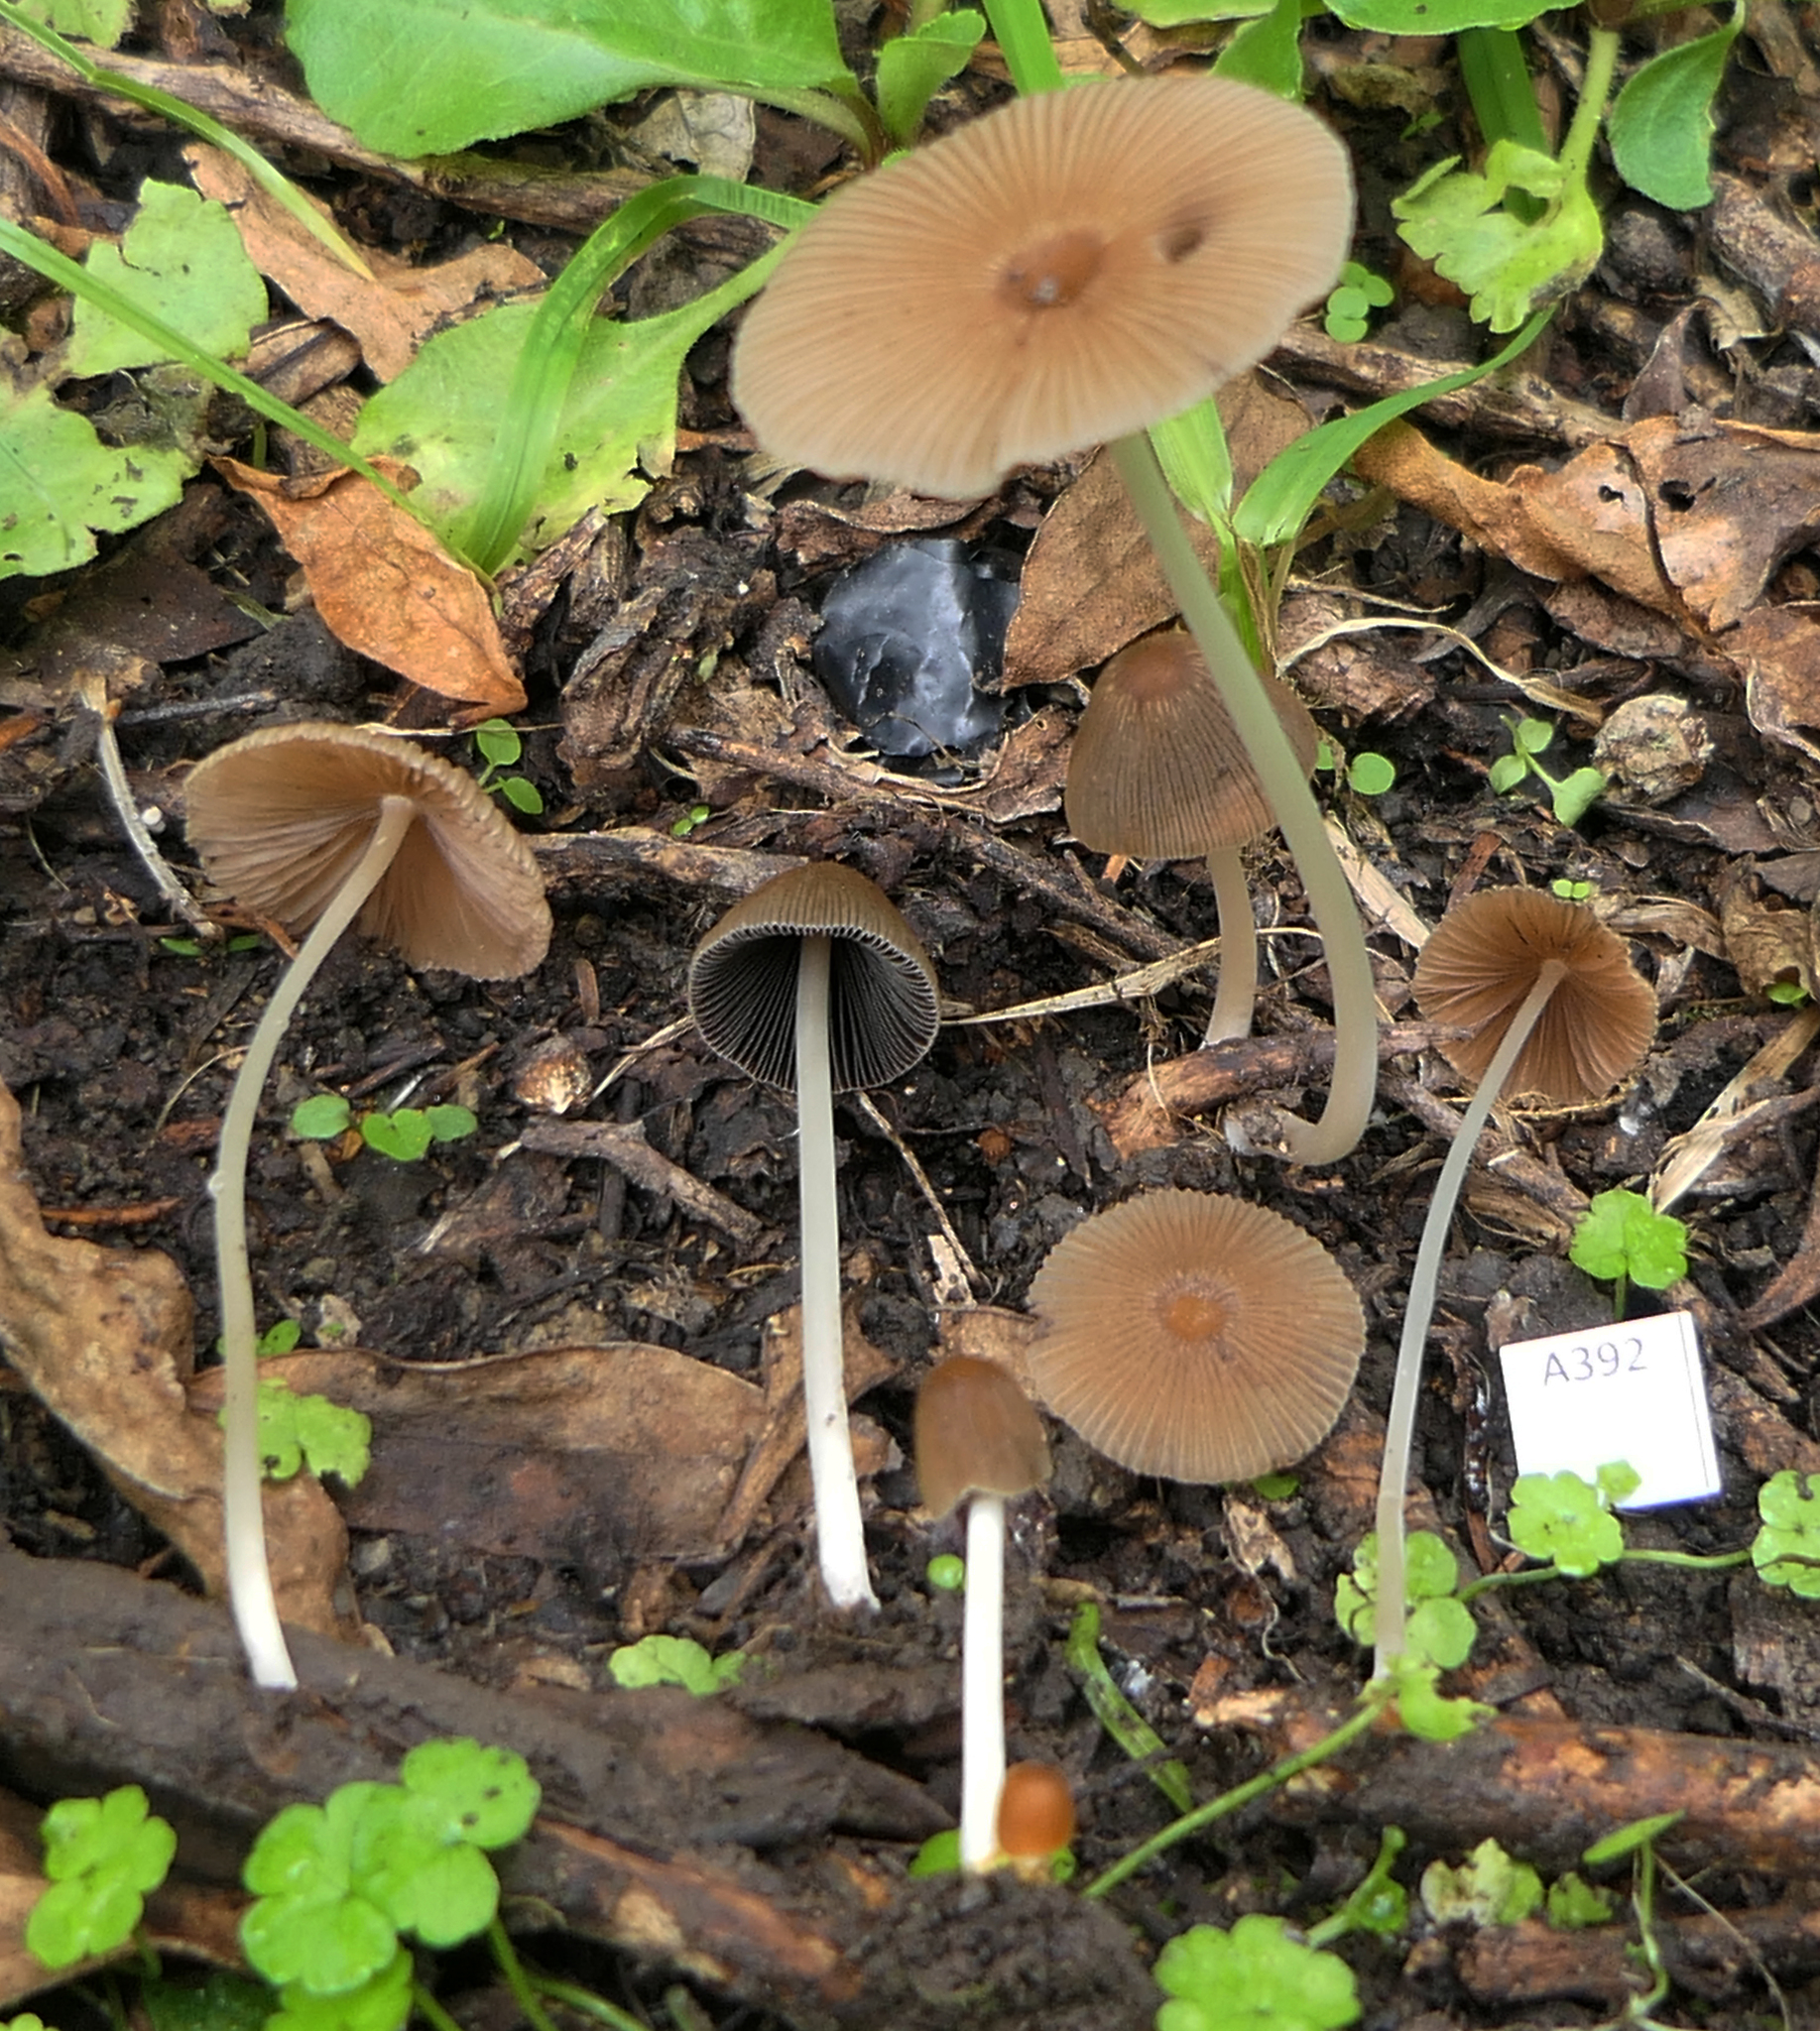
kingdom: Fungi
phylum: Basidiomycota
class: Agaricomycetes
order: Agaricales
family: Psathyrellaceae
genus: Parasola
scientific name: Parasola setulosa
